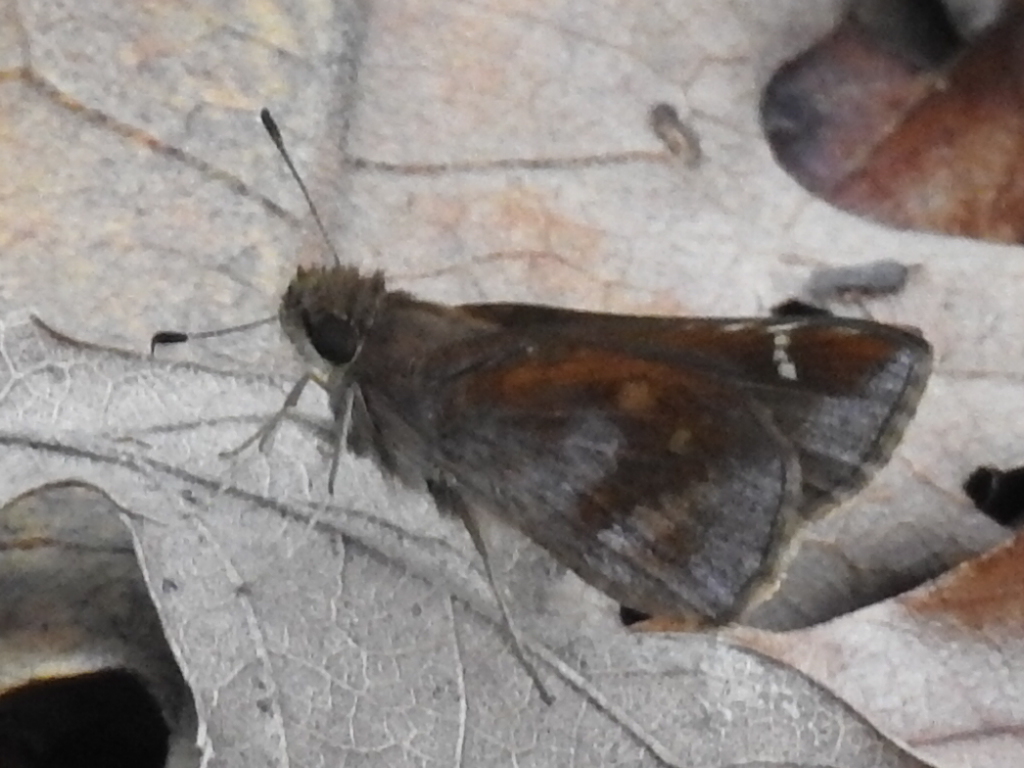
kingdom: Animalia
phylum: Arthropoda
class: Insecta
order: Lepidoptera
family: Hesperiidae
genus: Lerema
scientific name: Lerema accius
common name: Clouded skipper
